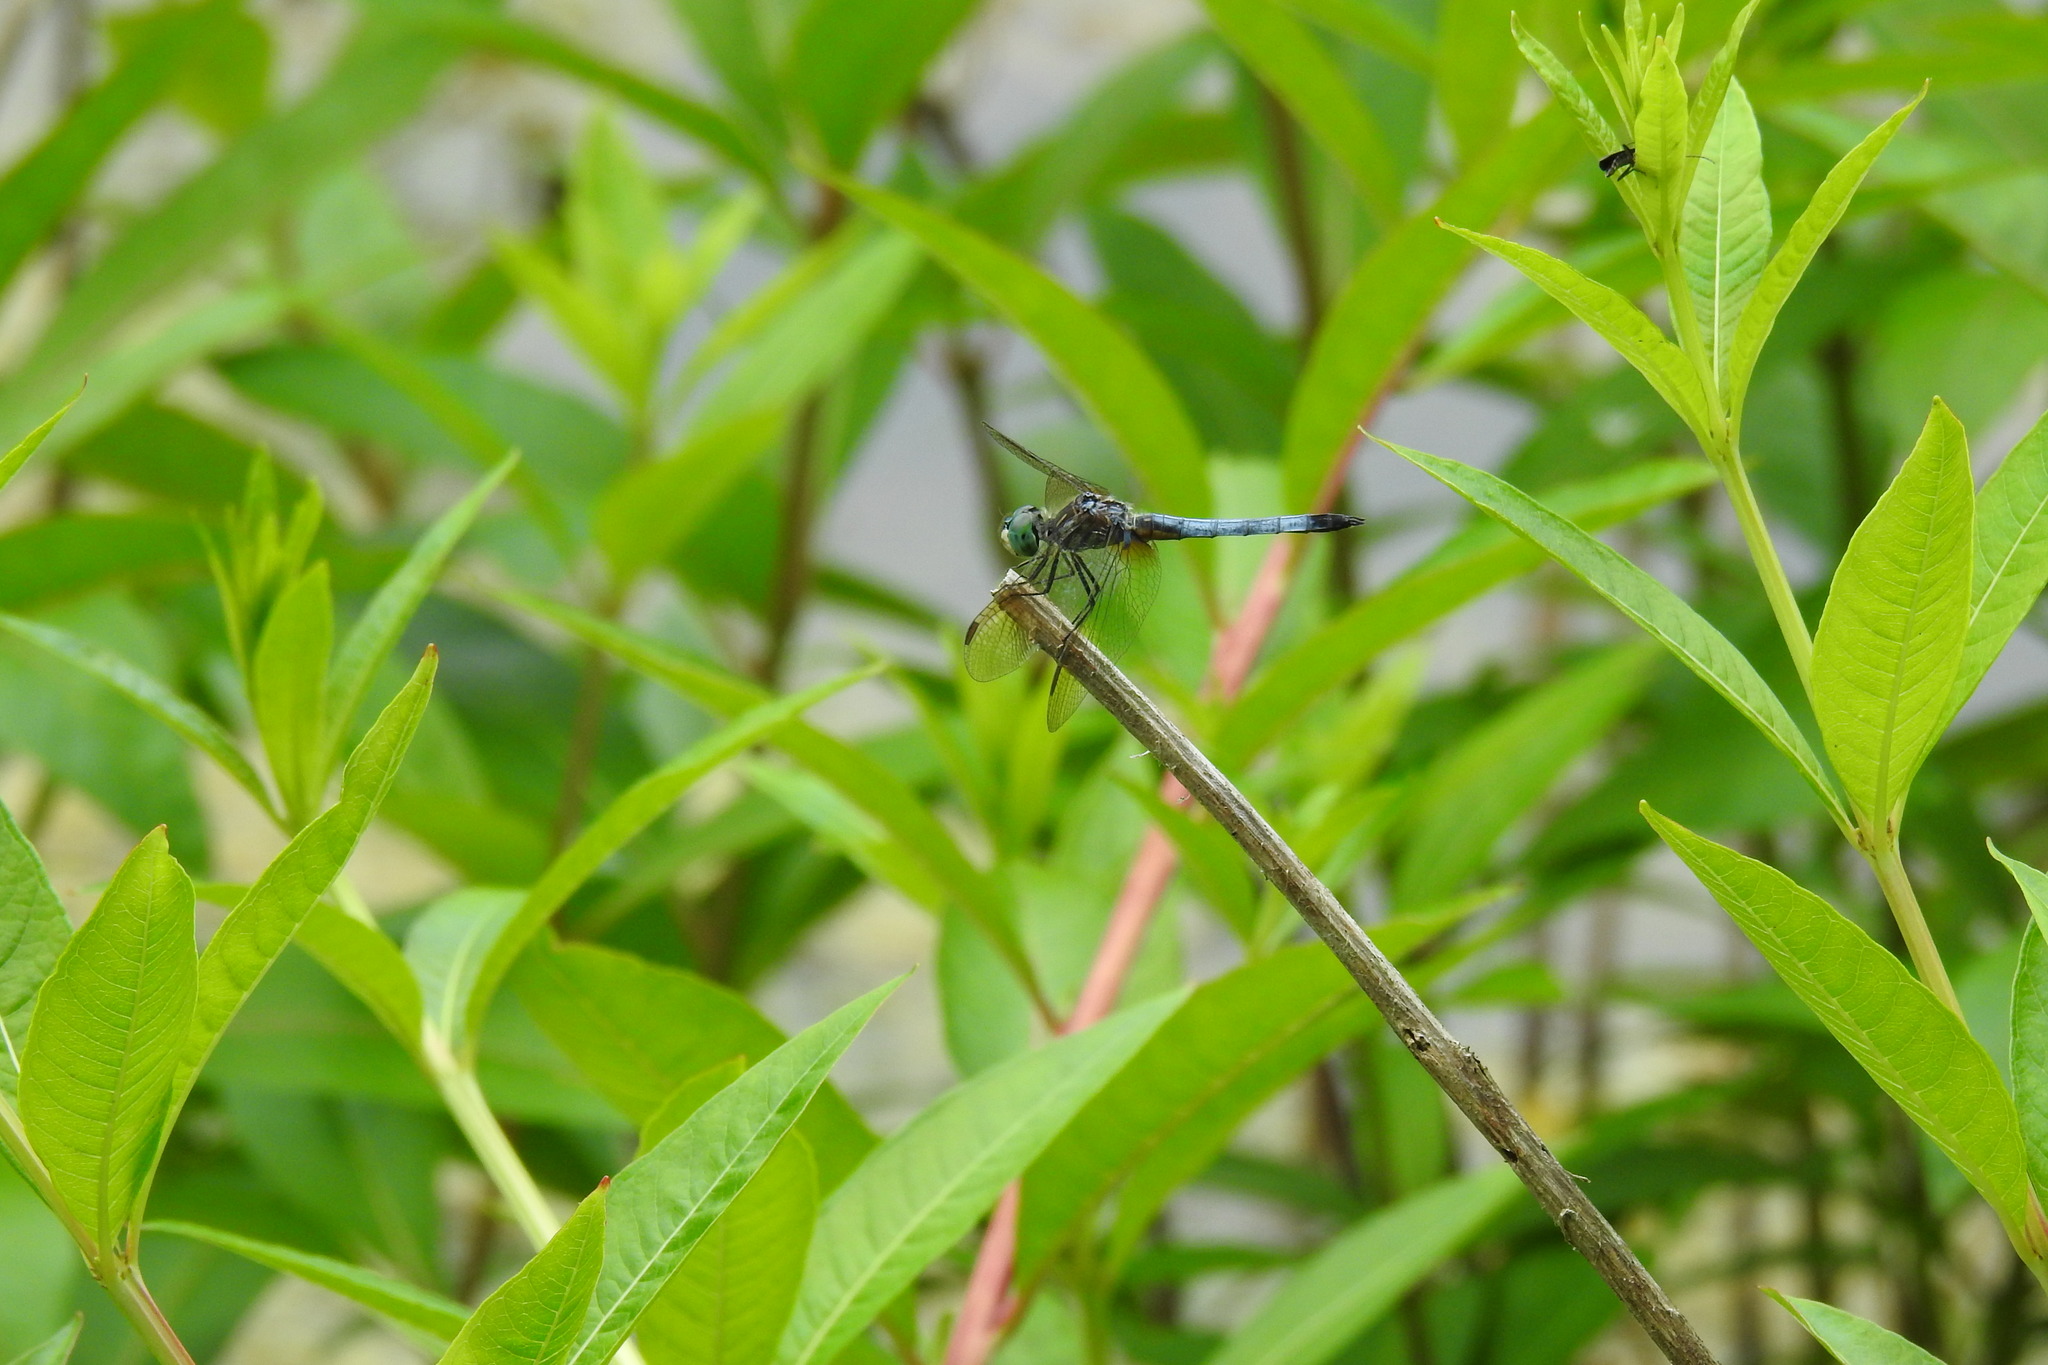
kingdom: Animalia
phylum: Arthropoda
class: Insecta
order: Odonata
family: Libellulidae
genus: Pachydiplax
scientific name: Pachydiplax longipennis
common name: Blue dasher
